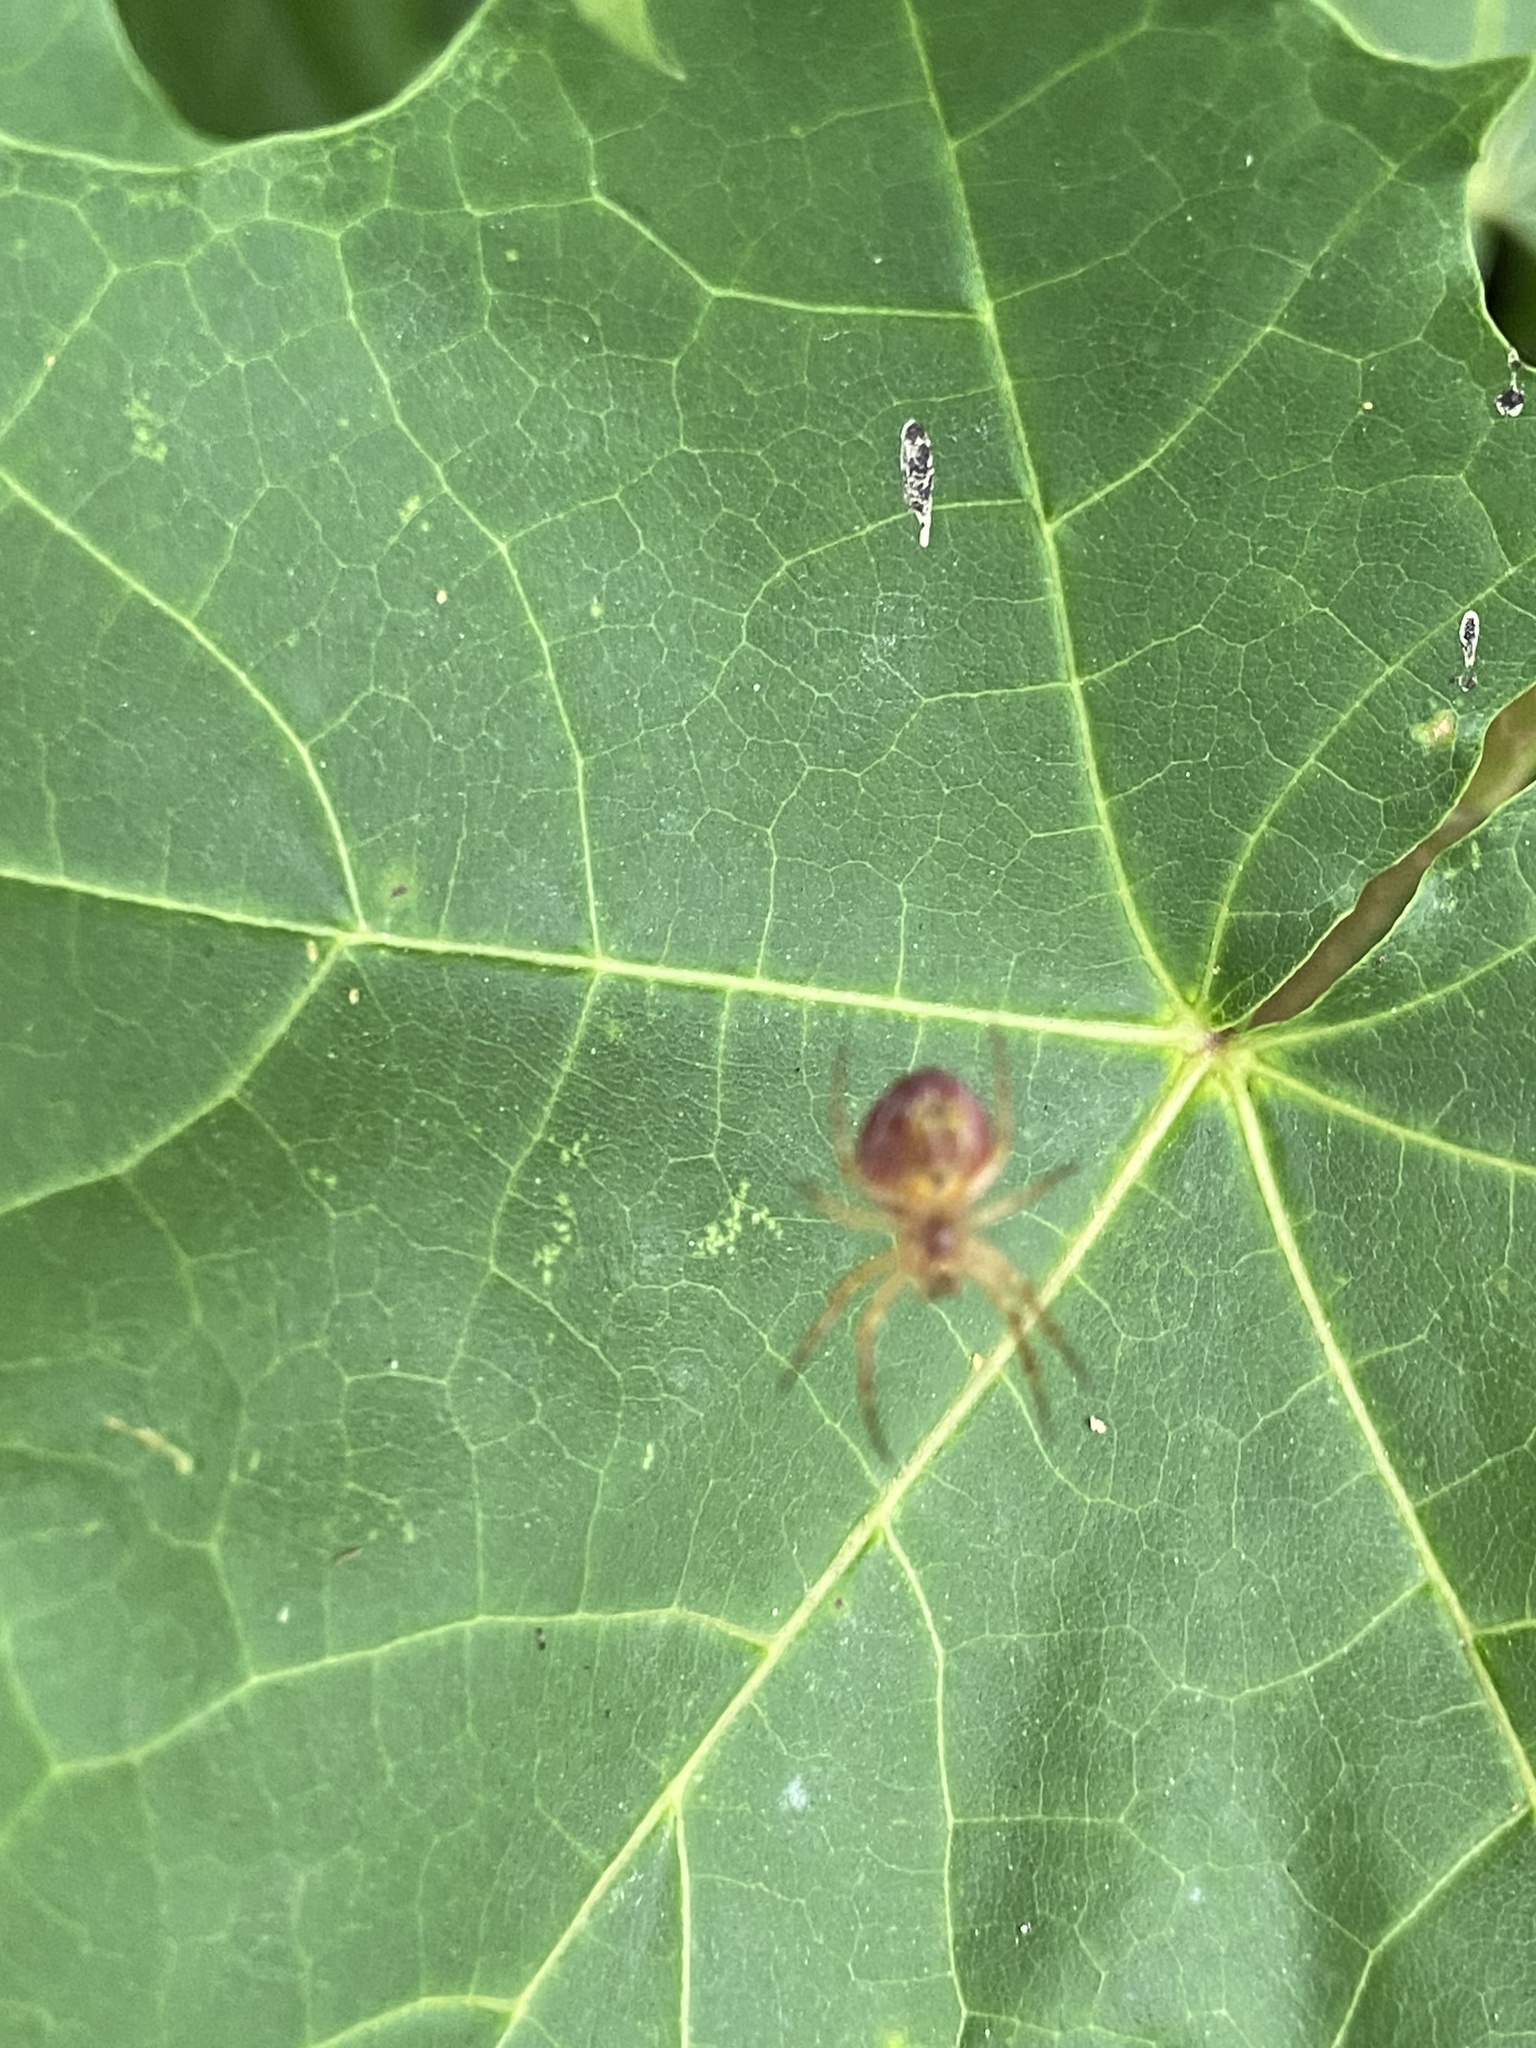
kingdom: Animalia
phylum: Arthropoda
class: Arachnida
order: Araneae
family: Araneidae
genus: Araniella
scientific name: Araniella displicata
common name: Sixspotted orb weaver
